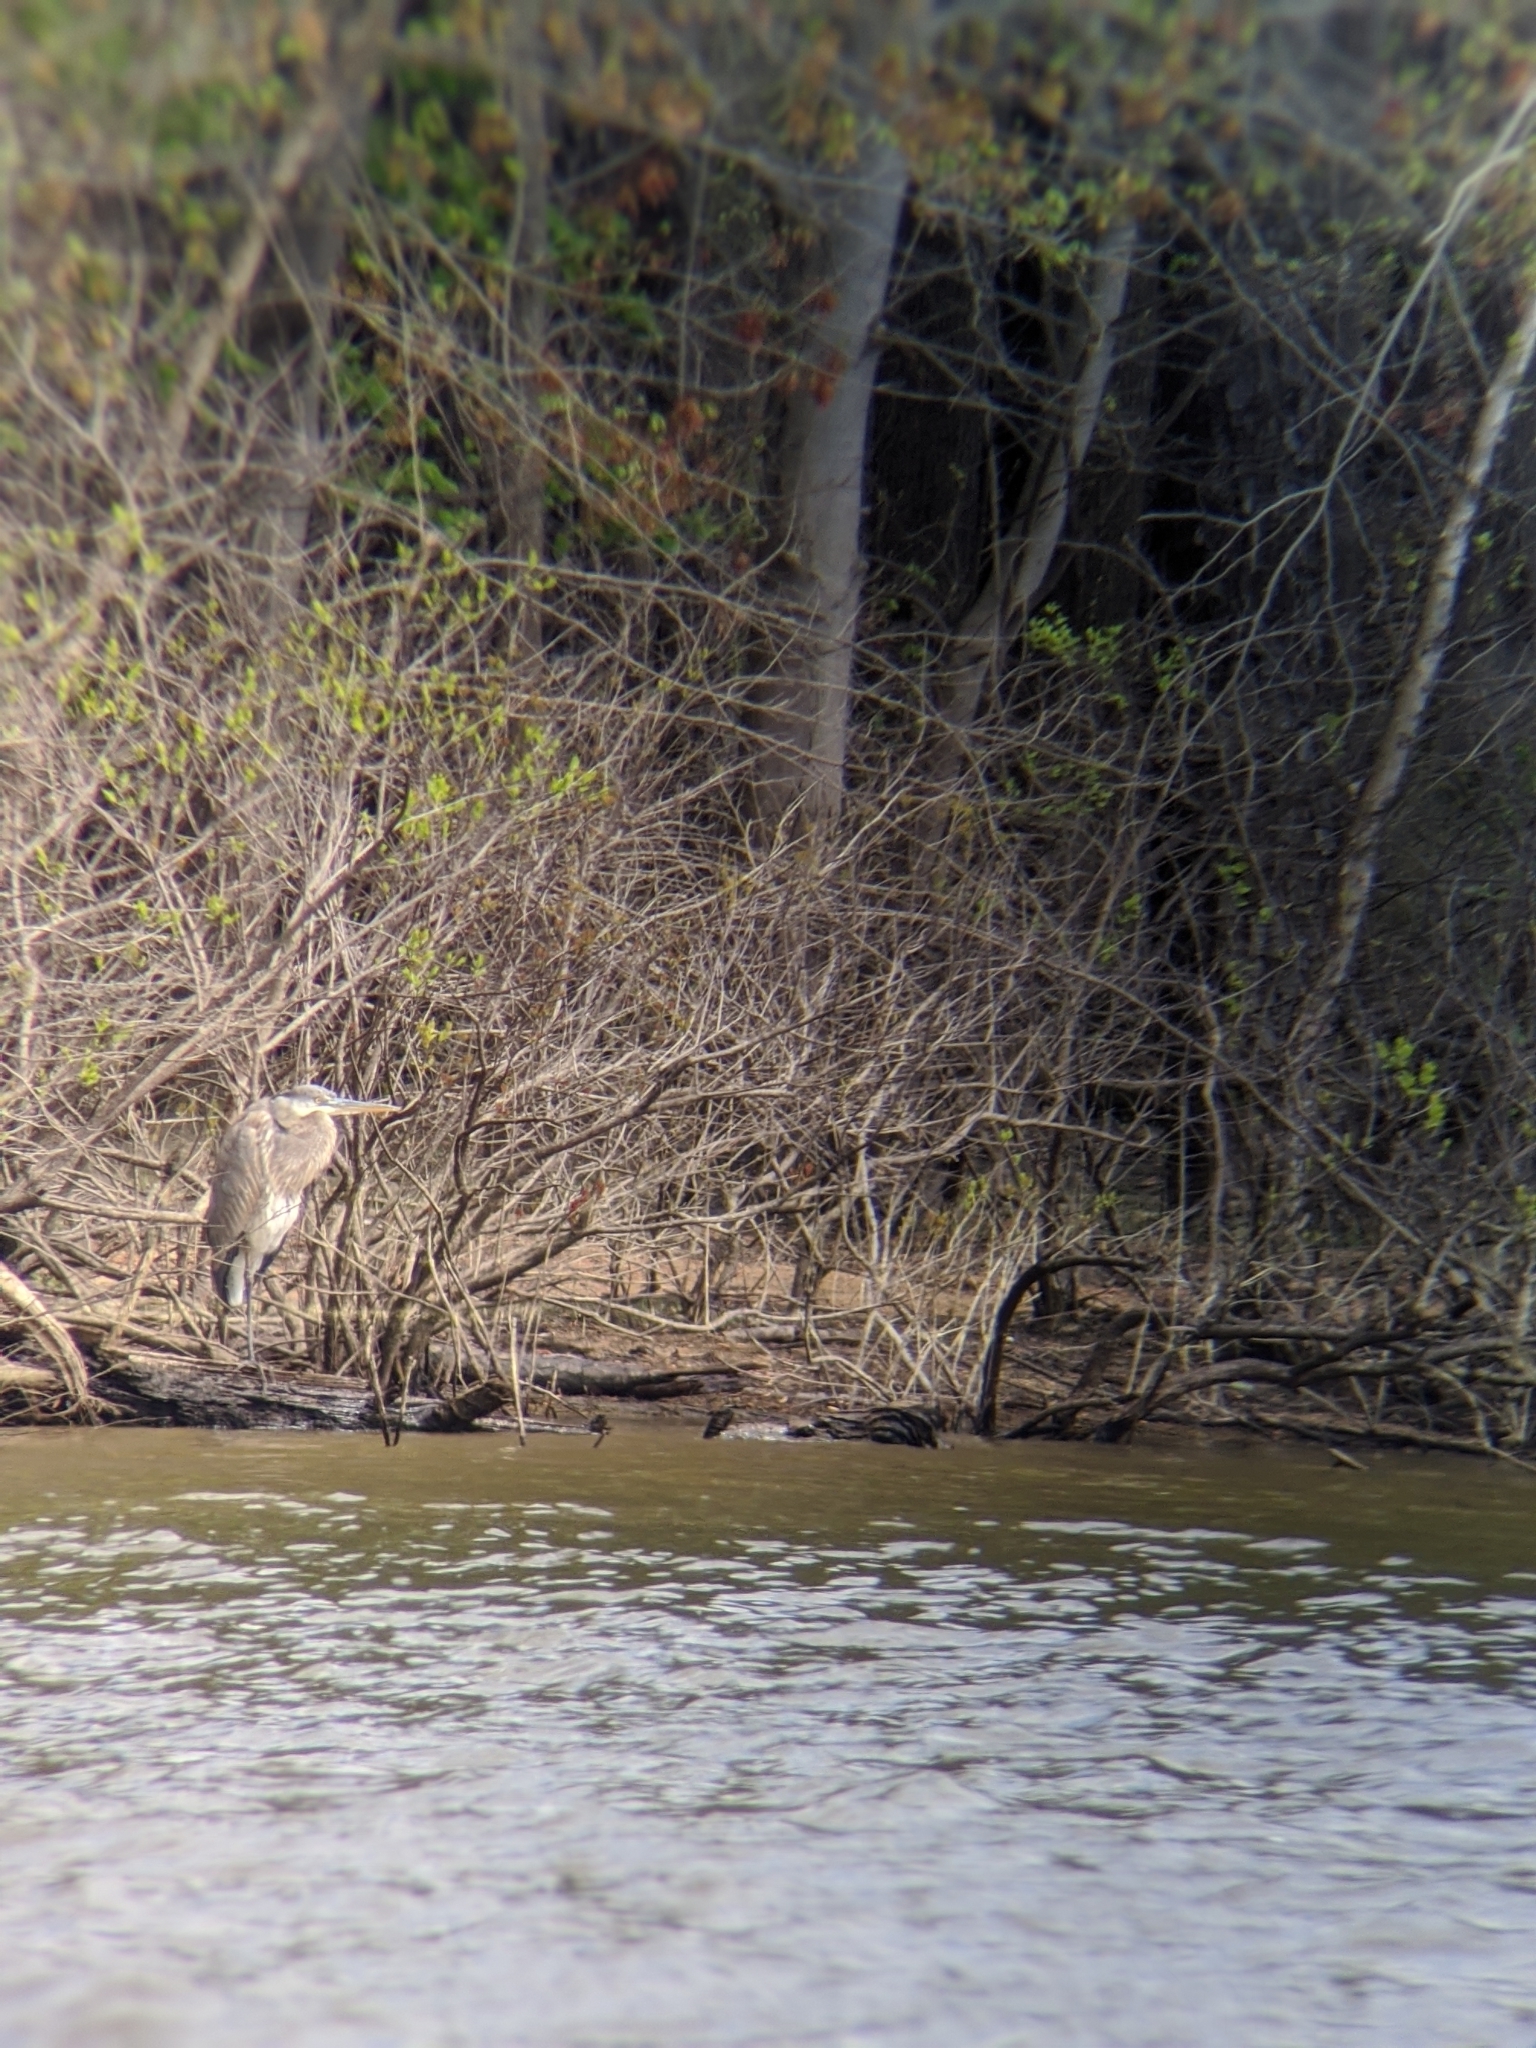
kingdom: Animalia
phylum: Chordata
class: Aves
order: Pelecaniformes
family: Ardeidae
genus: Ardea
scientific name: Ardea herodias
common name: Great blue heron
